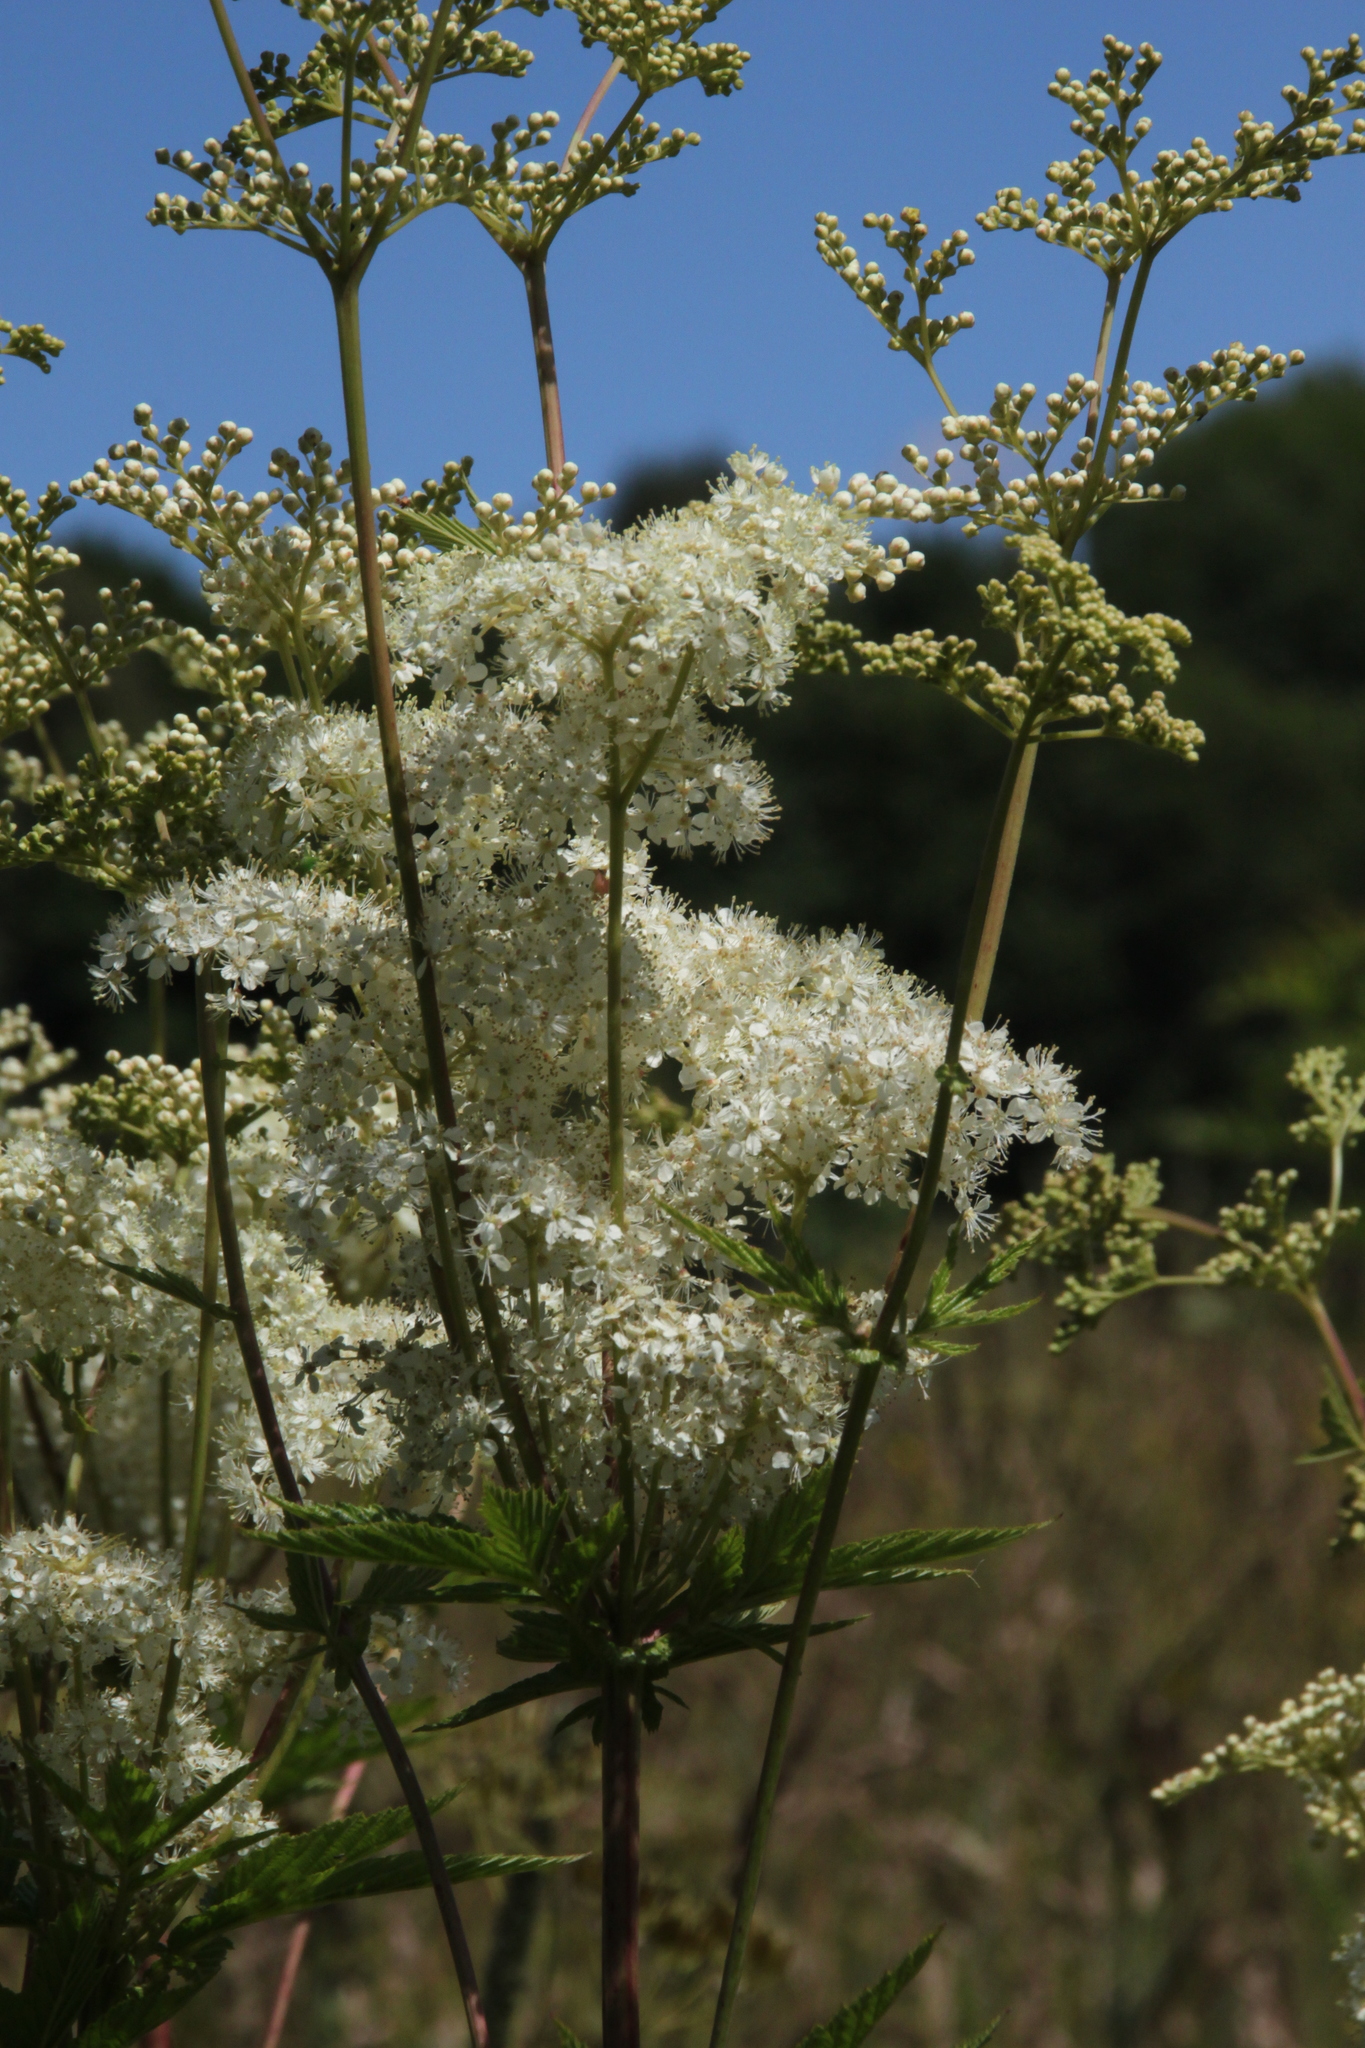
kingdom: Plantae
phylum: Tracheophyta
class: Magnoliopsida
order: Rosales
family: Rosaceae
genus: Filipendula
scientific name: Filipendula ulmaria
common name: Meadowsweet
